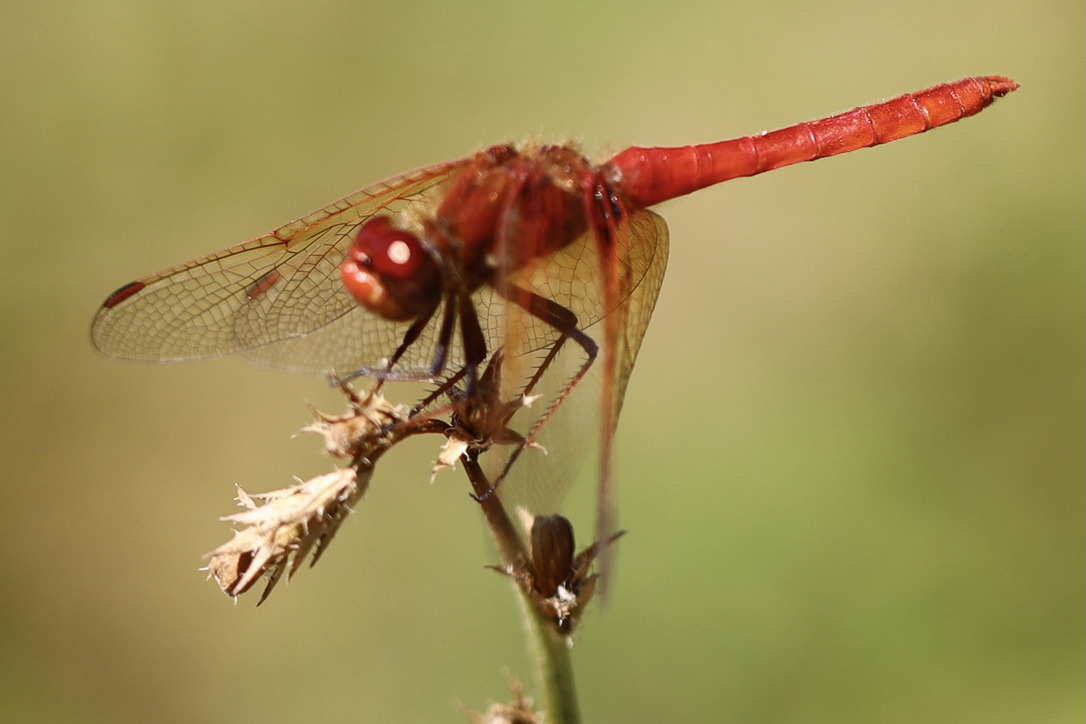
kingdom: Animalia
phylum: Arthropoda
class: Insecta
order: Odonata
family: Libellulidae
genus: Sympetrum
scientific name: Sympetrum illotum
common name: Cardinal meadowhawk
